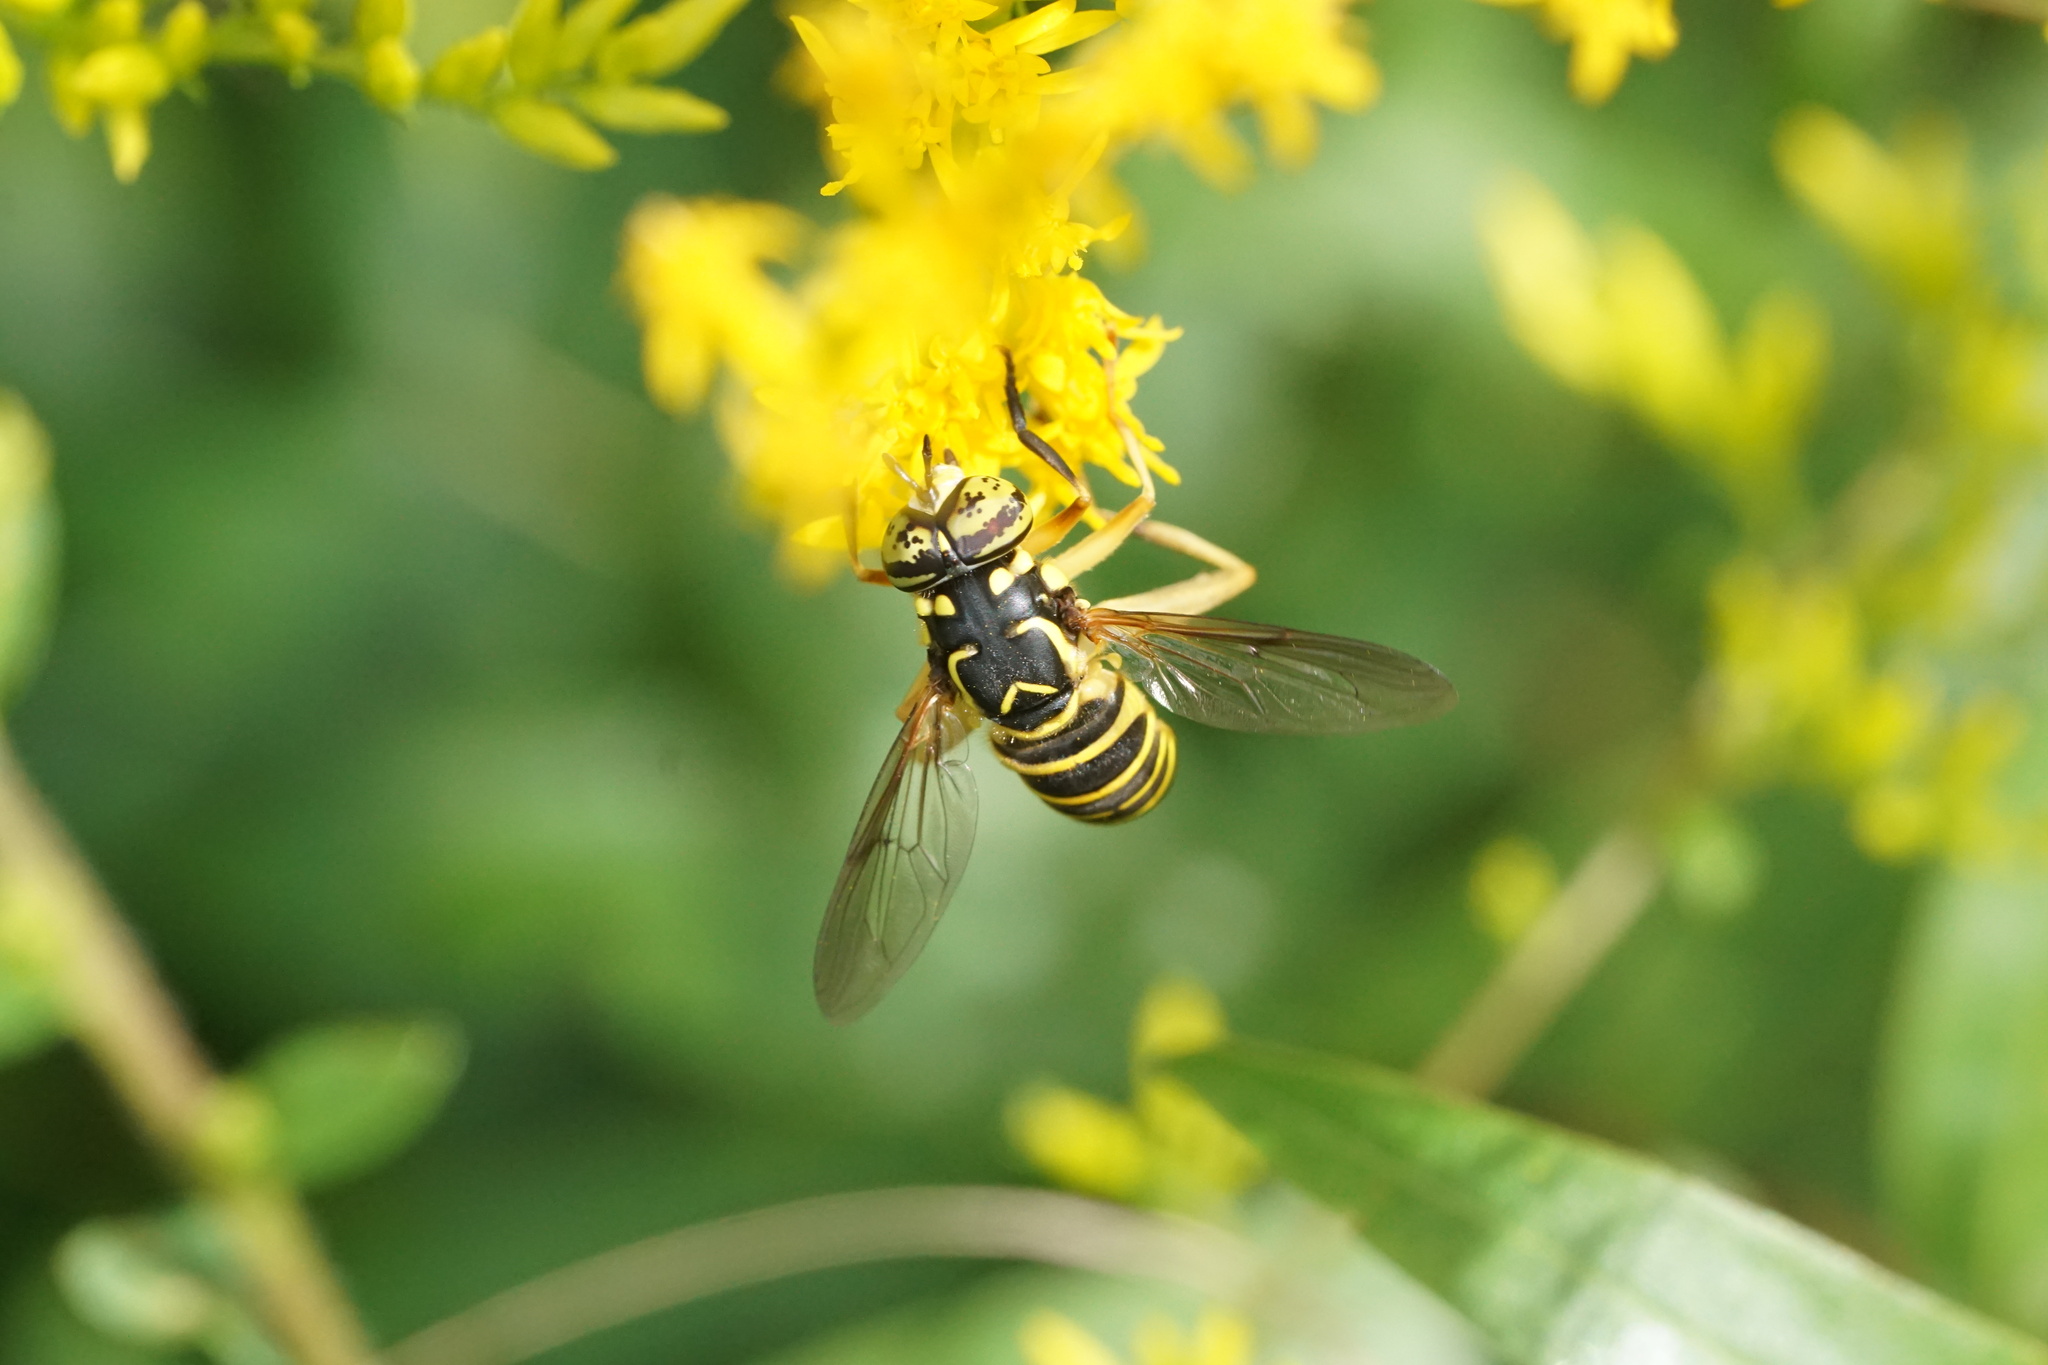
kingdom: Animalia
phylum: Arthropoda
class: Insecta
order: Diptera
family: Syrphidae
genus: Spilomyia
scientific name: Spilomyia longicornis
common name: Eastern hornet fly
